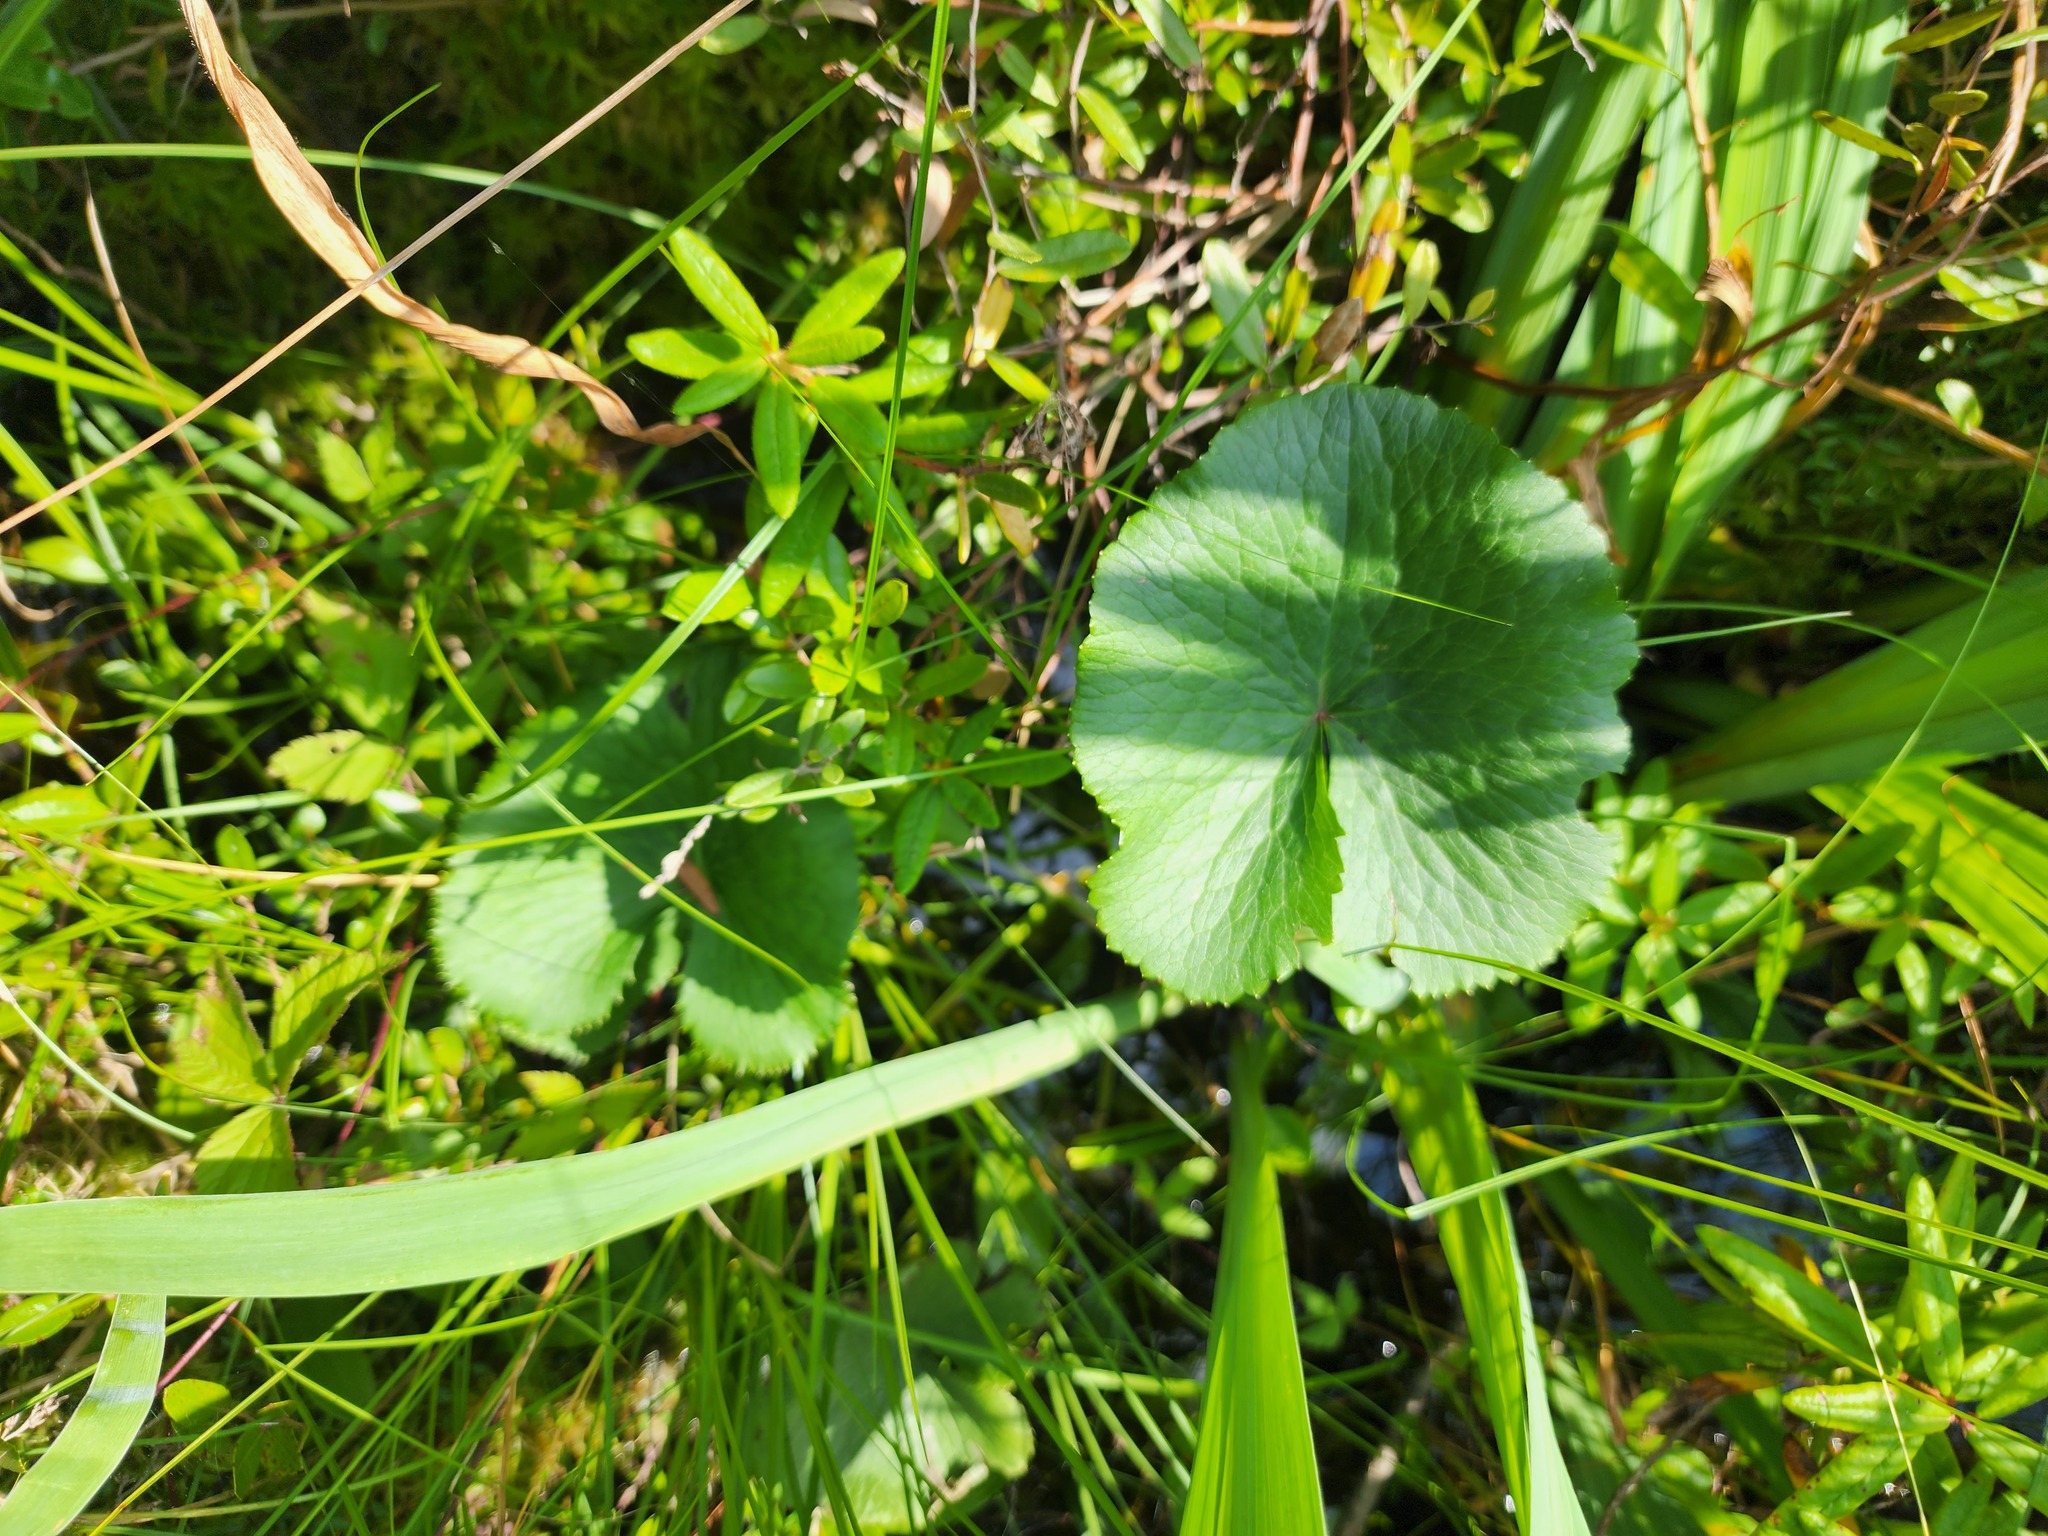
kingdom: Plantae
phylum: Tracheophyta
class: Magnoliopsida
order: Ranunculales
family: Ranunculaceae
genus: Caltha
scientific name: Caltha palustris
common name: Marsh marigold
